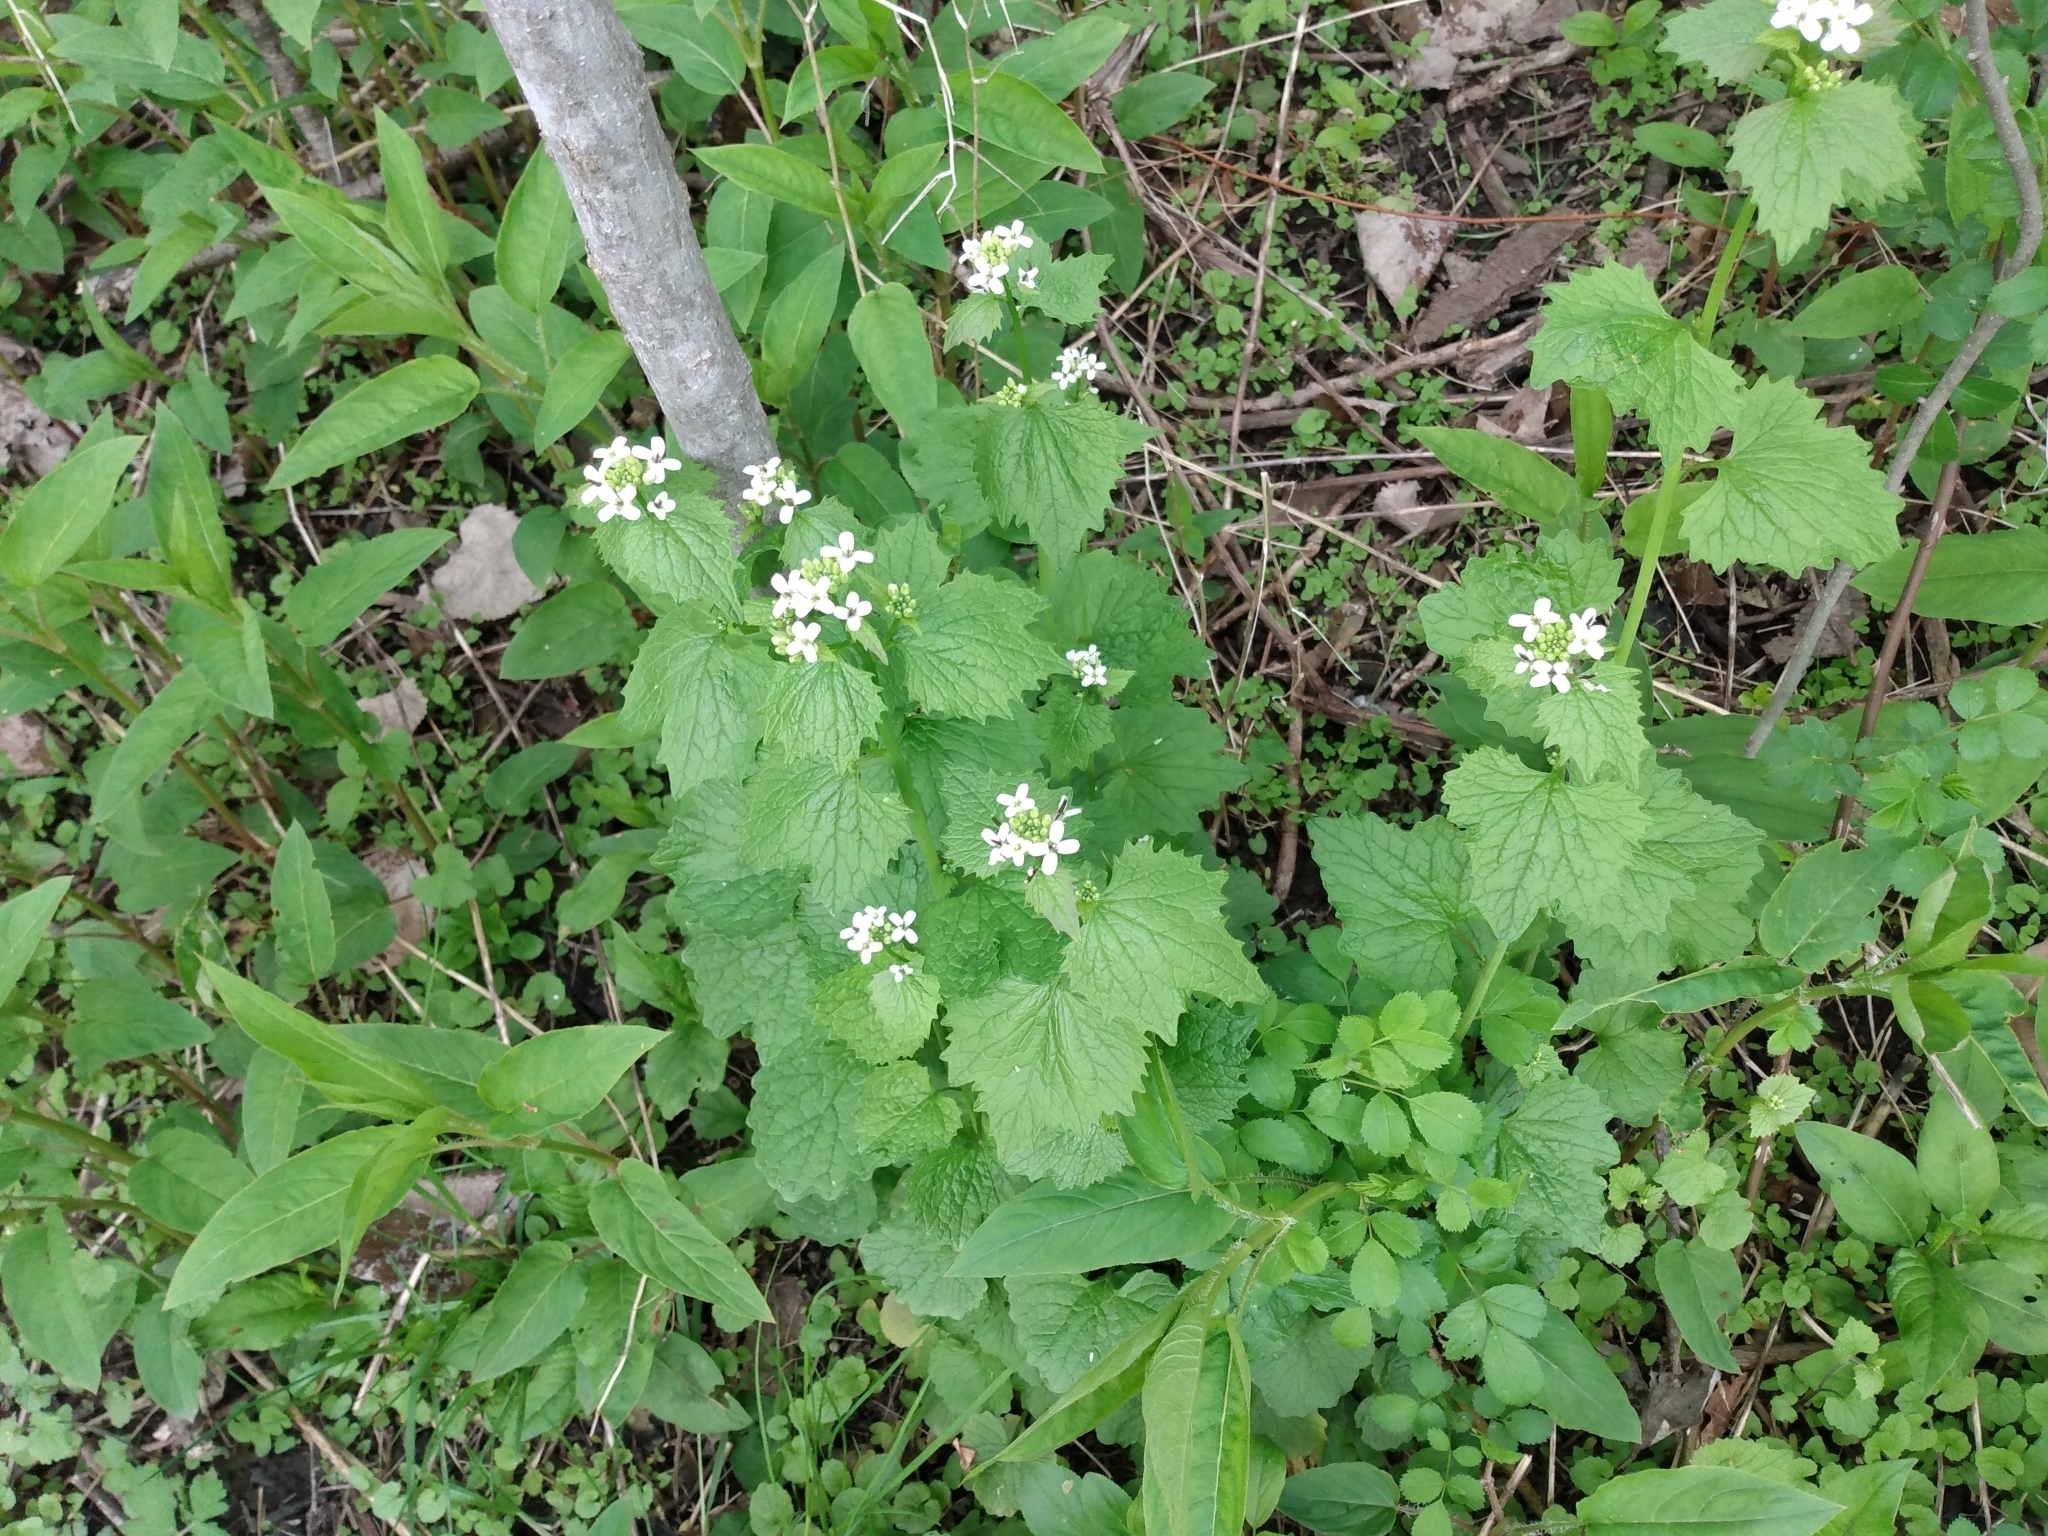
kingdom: Plantae
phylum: Tracheophyta
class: Magnoliopsida
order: Brassicales
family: Brassicaceae
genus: Alliaria
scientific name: Alliaria petiolata
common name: Garlic mustard
